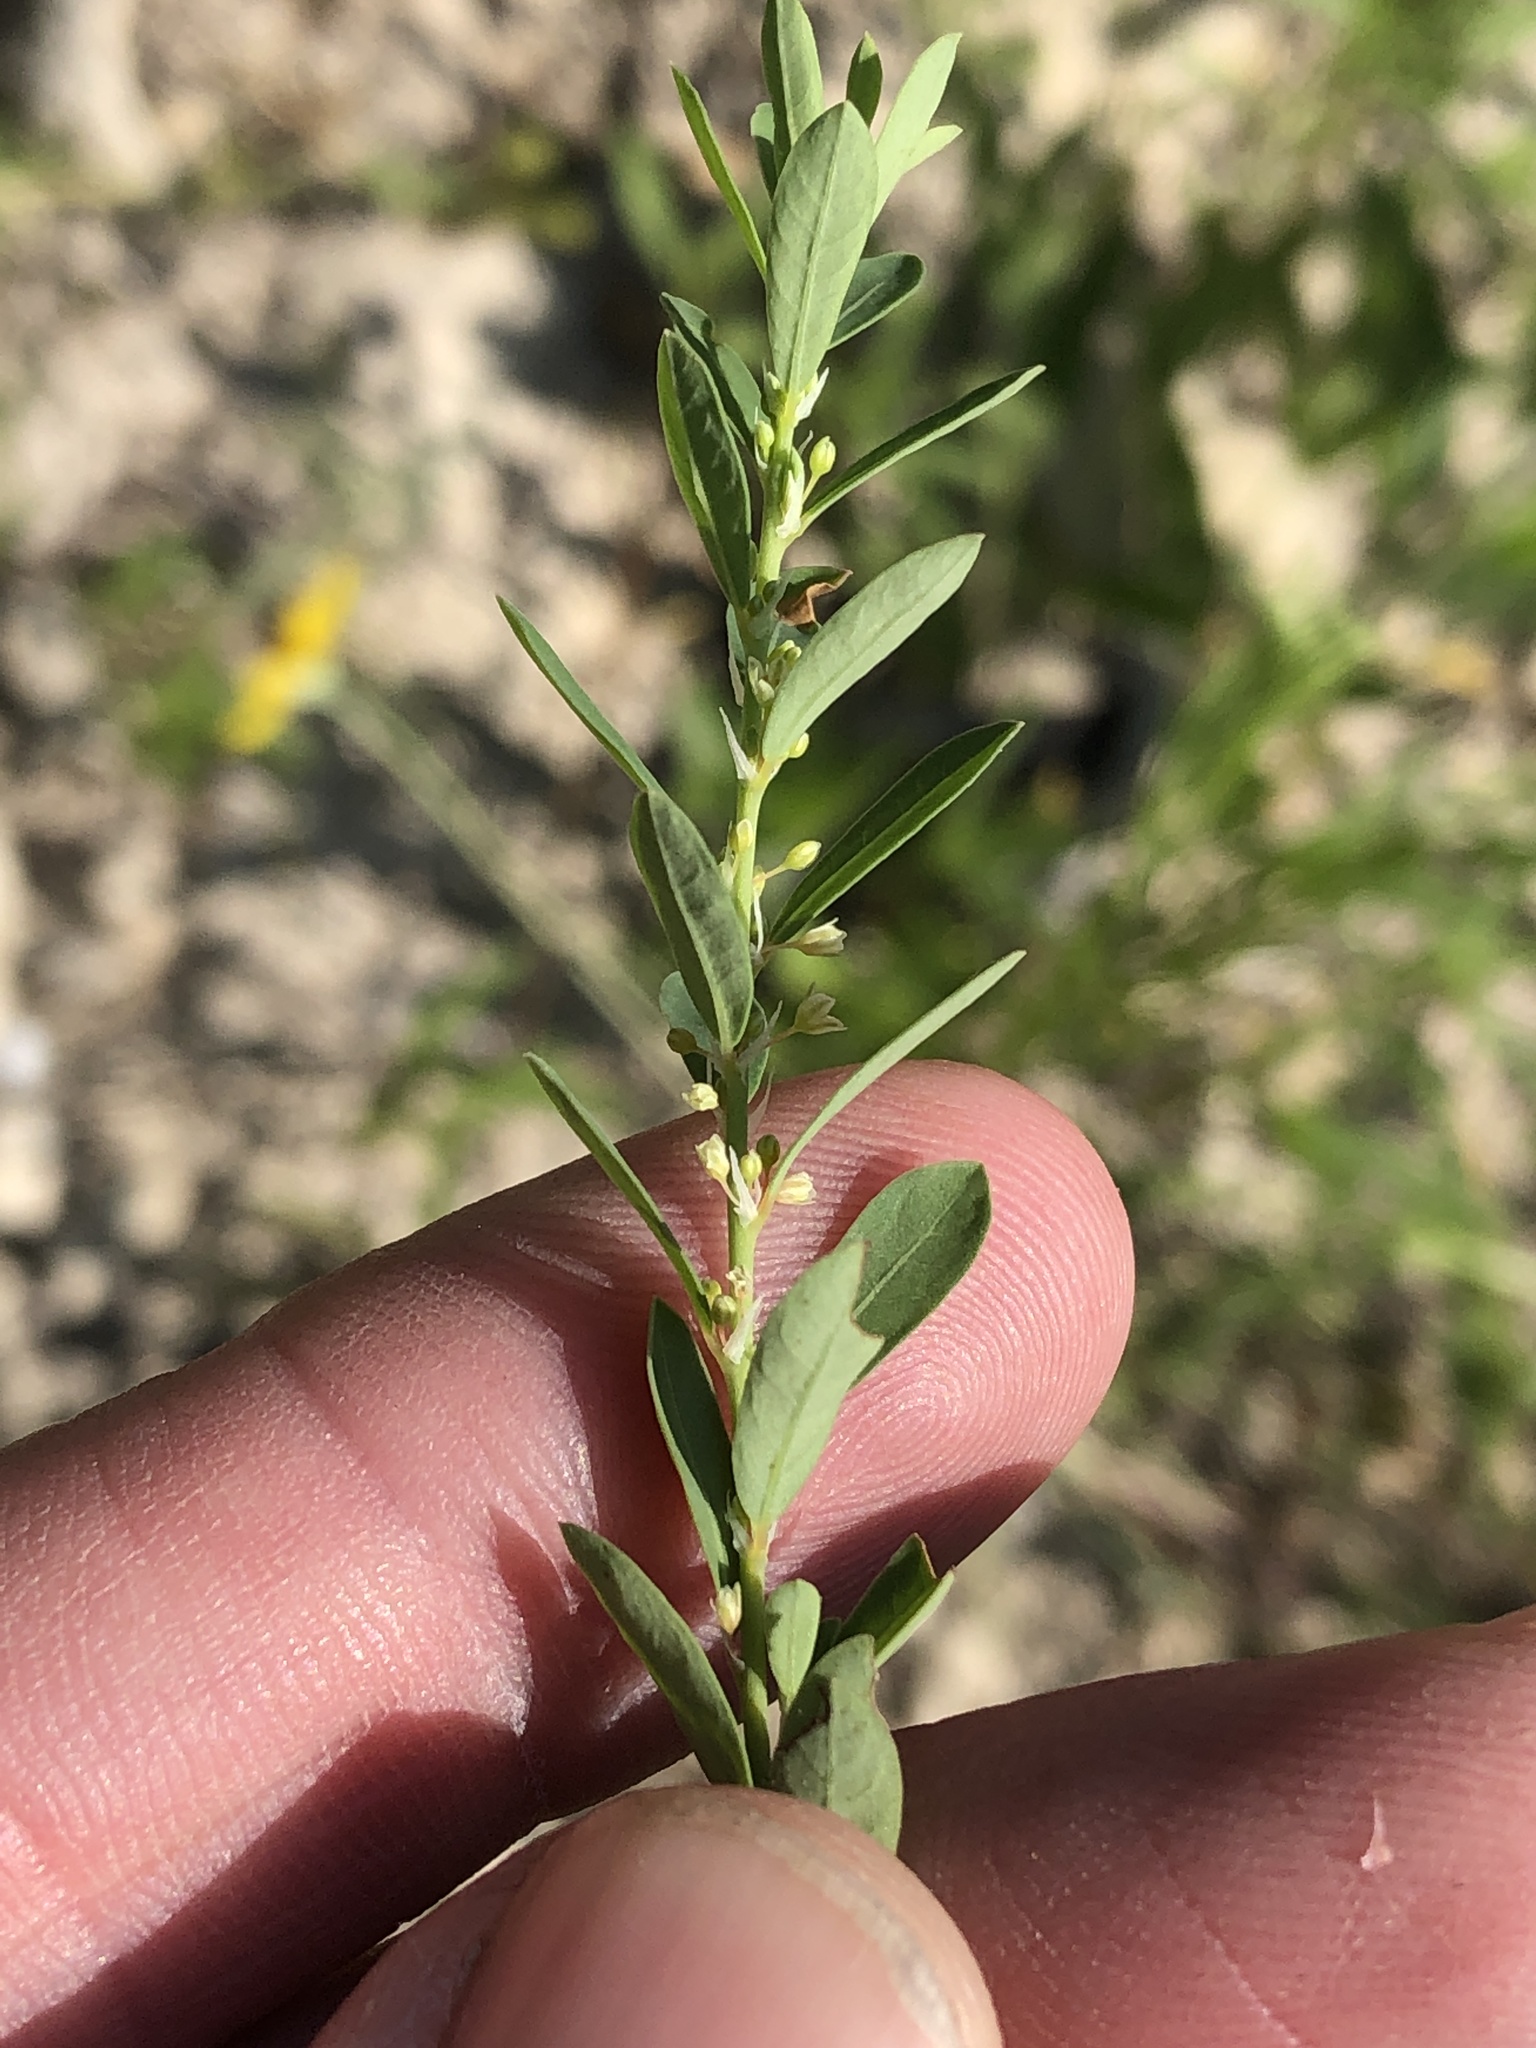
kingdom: Plantae
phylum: Tracheophyta
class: Magnoliopsida
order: Malpighiales
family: Phyllanthaceae
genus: Phyllanthus
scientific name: Phyllanthus polygonoides
